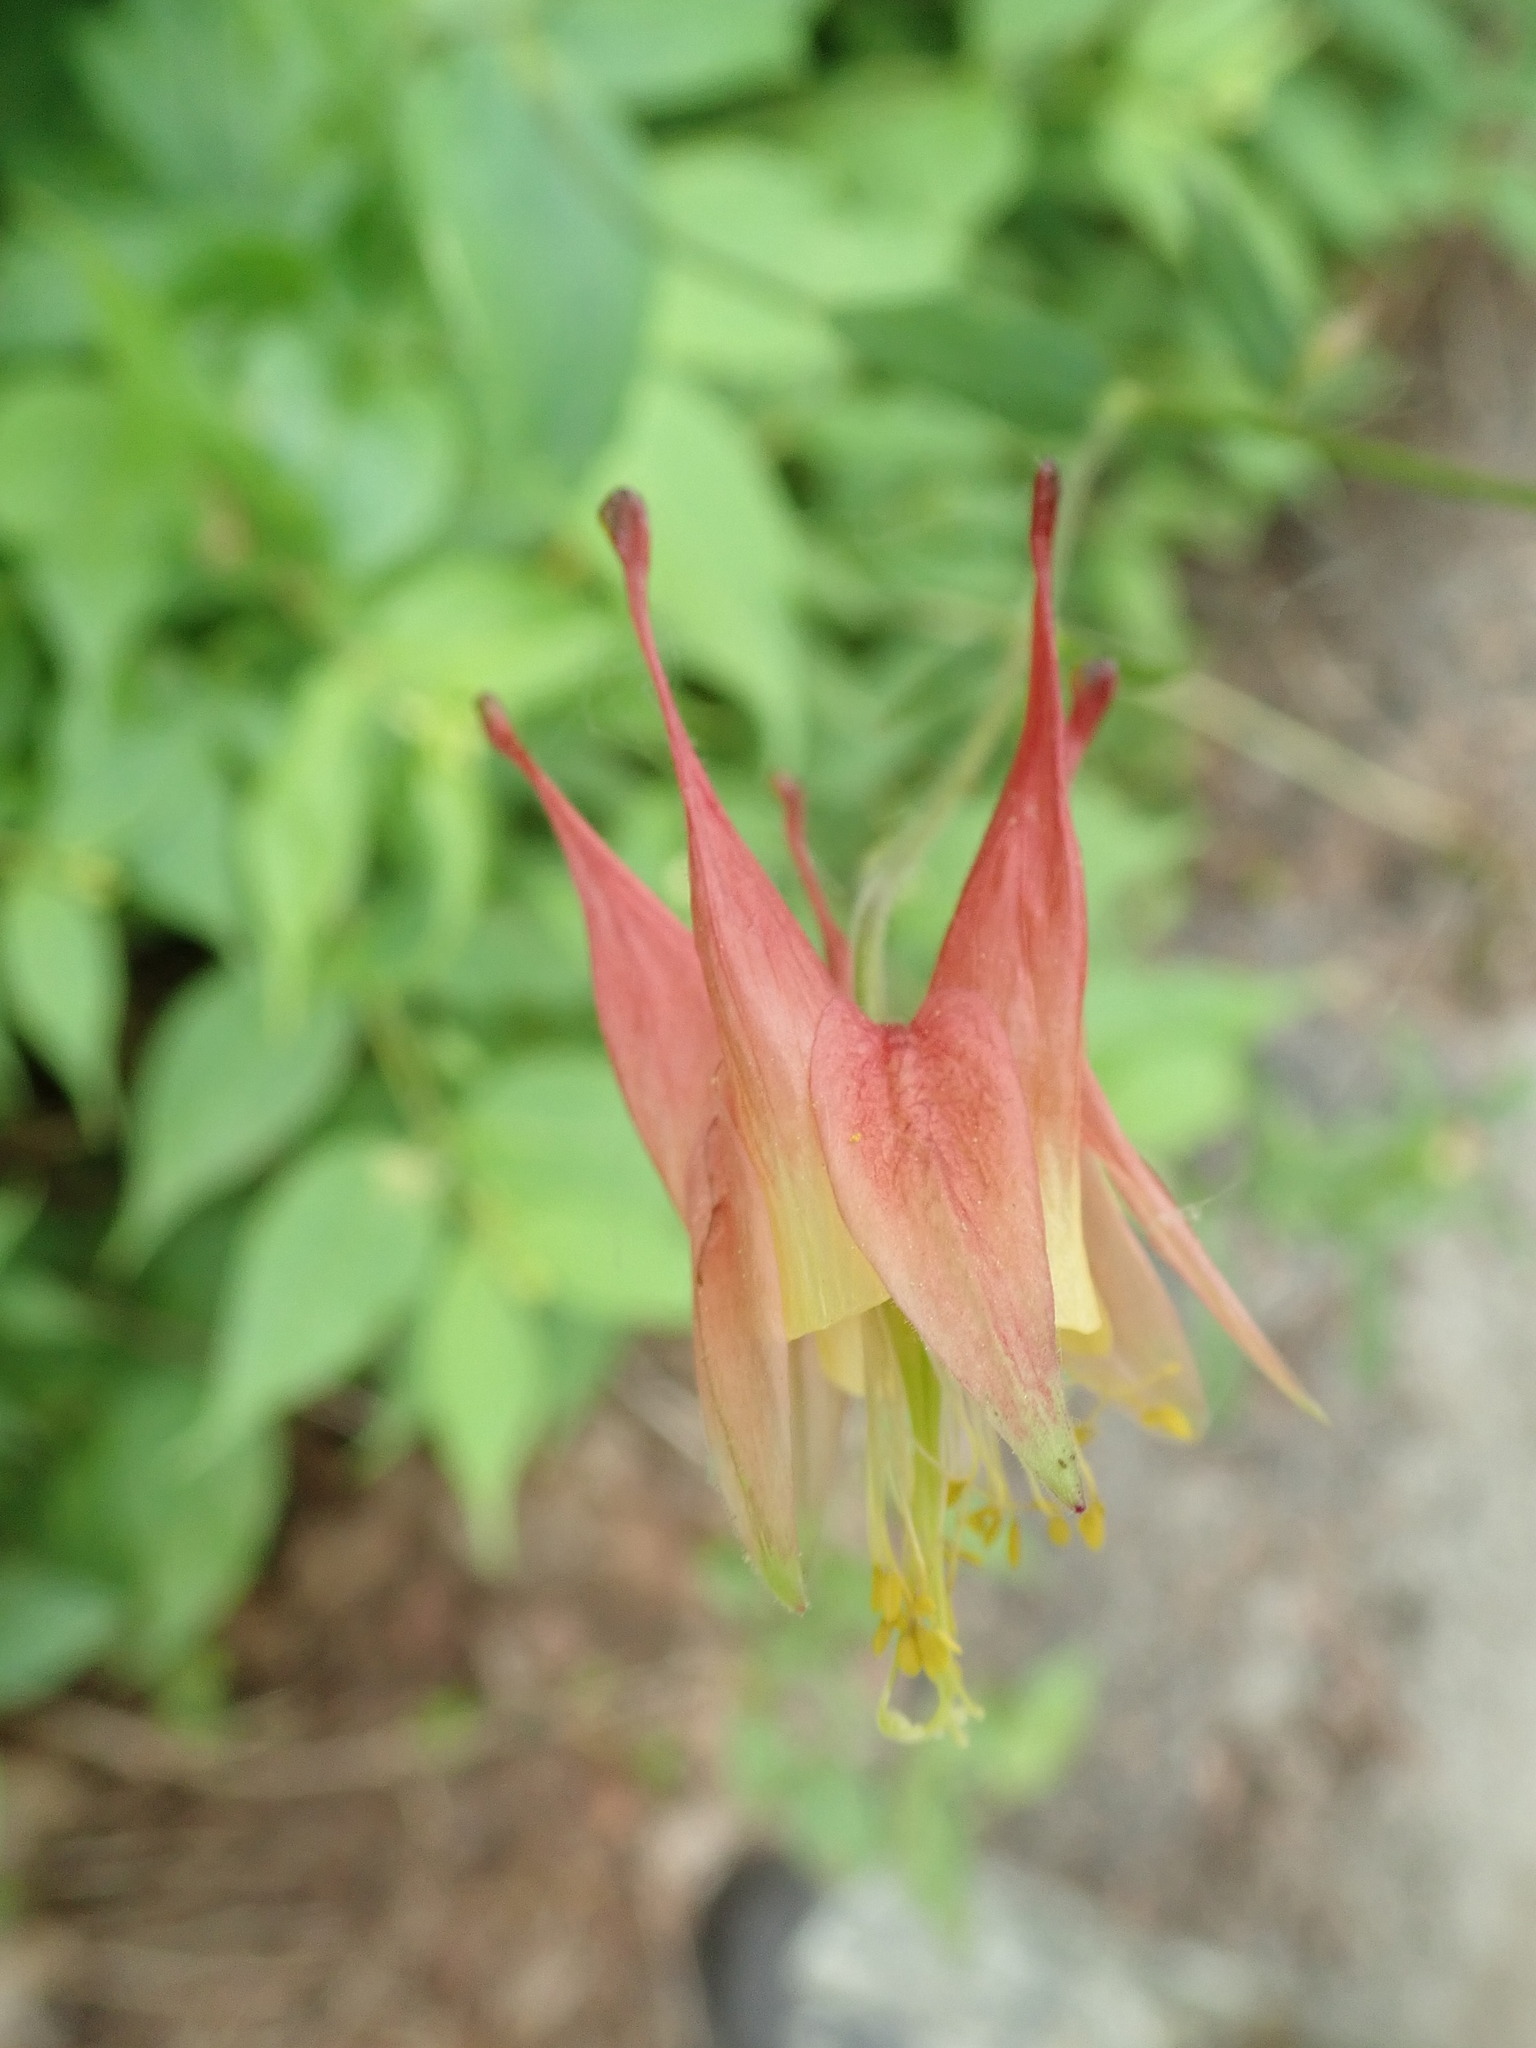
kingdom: Plantae
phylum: Tracheophyta
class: Magnoliopsida
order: Ranunculales
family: Ranunculaceae
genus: Aquilegia
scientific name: Aquilegia canadensis
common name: American columbine
